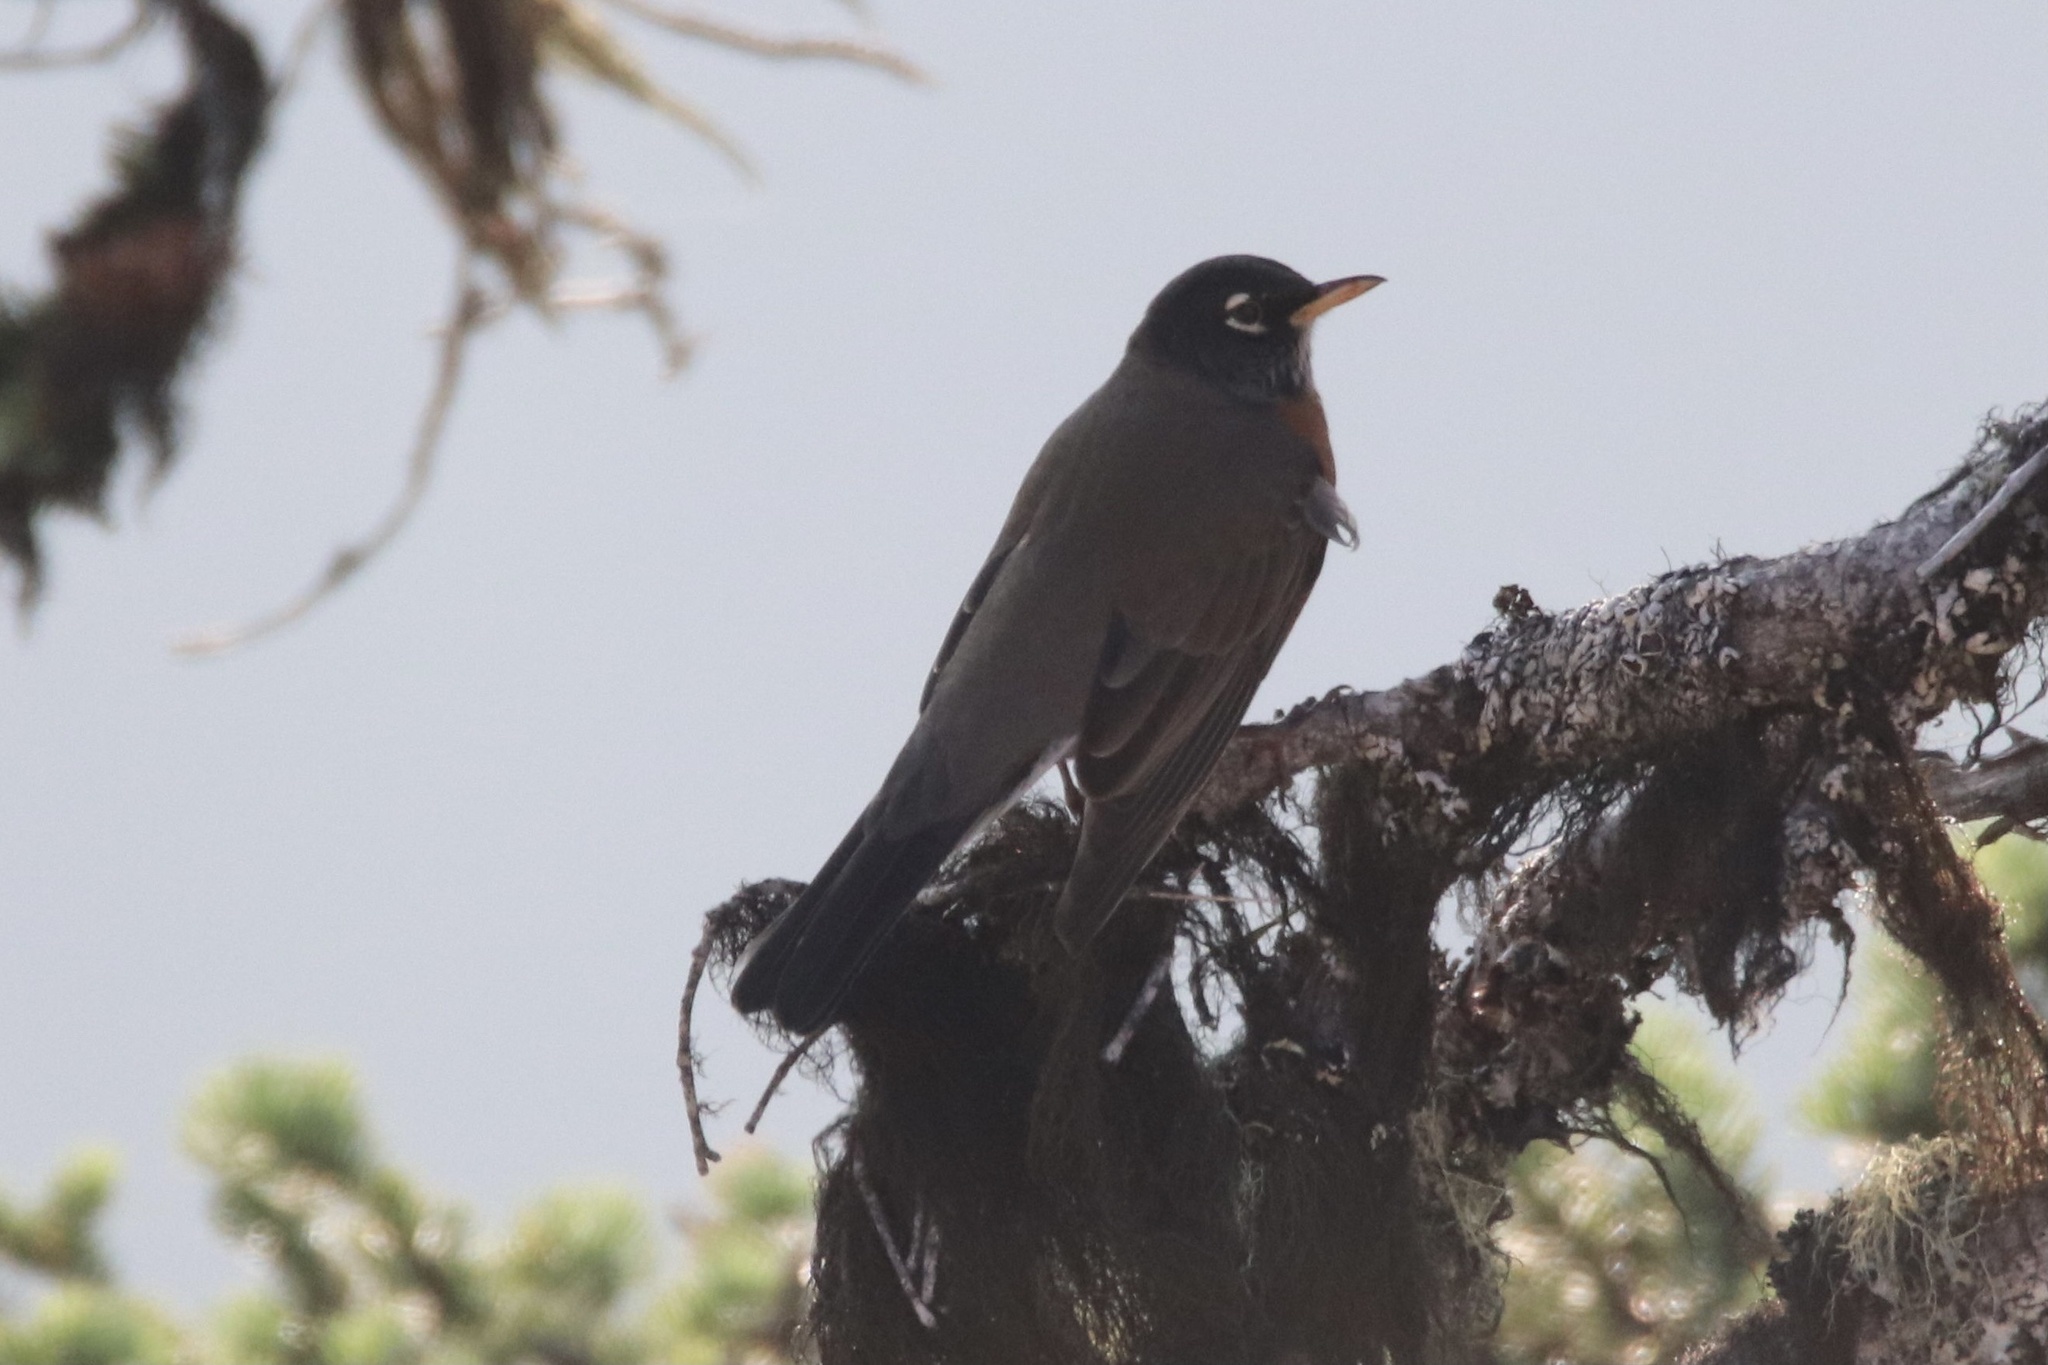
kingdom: Animalia
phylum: Chordata
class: Aves
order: Passeriformes
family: Turdidae
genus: Turdus
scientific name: Turdus migratorius
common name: American robin
